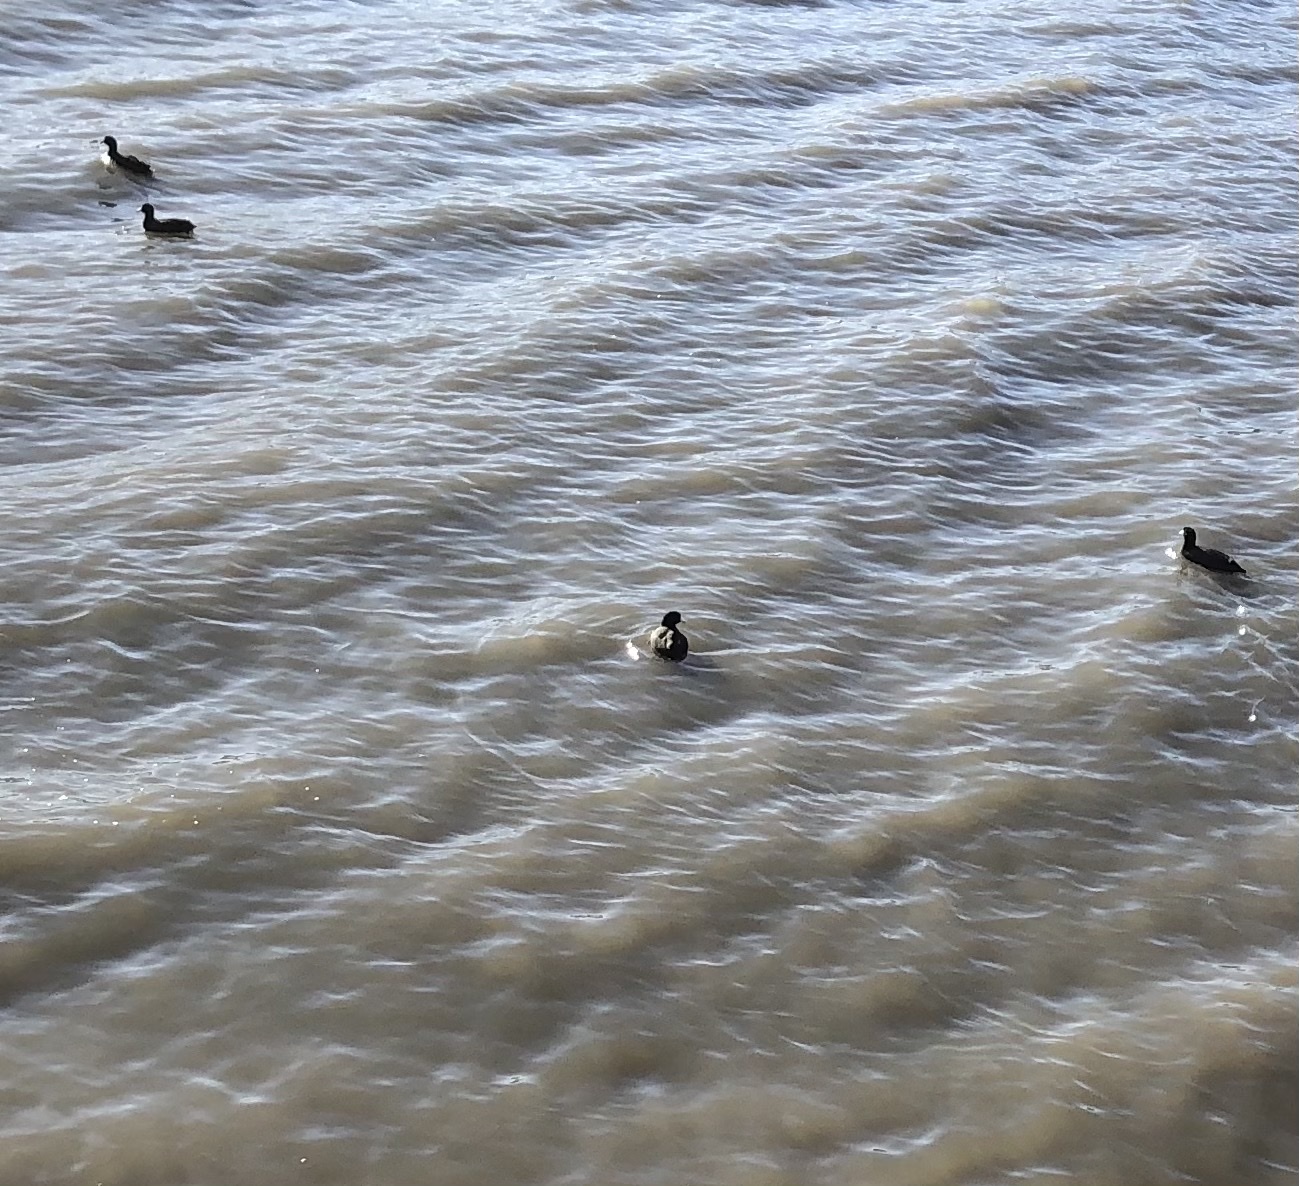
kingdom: Animalia
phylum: Chordata
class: Aves
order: Gruiformes
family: Rallidae
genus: Fulica
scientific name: Fulica americana
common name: American coot
